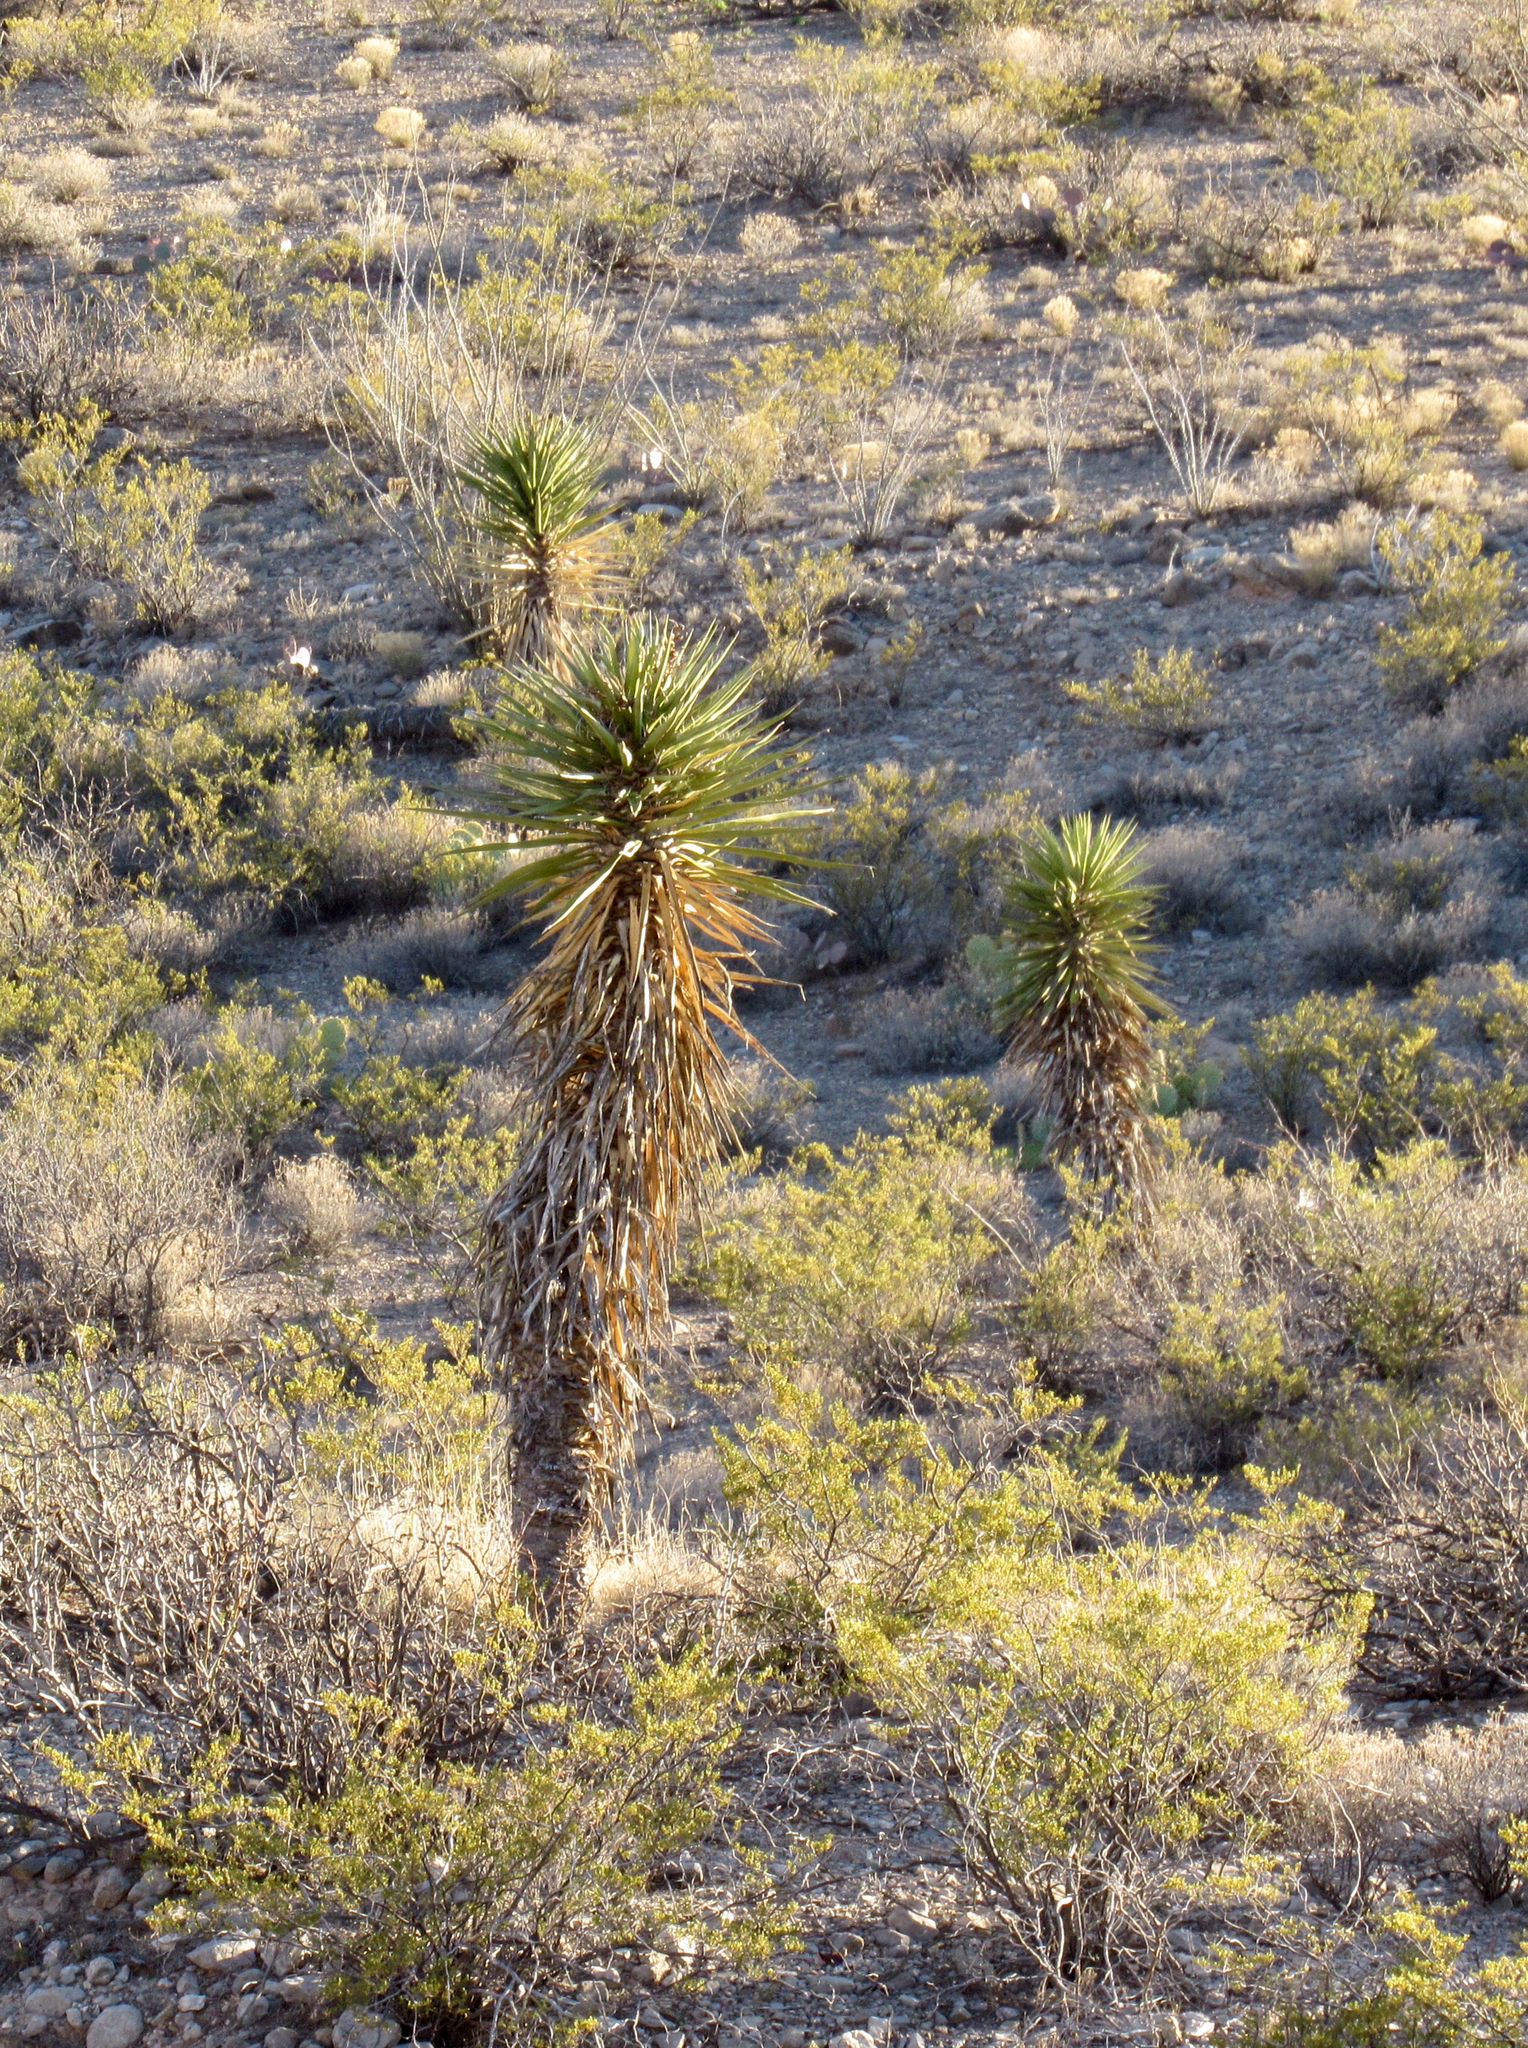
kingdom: Plantae
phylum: Tracheophyta
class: Liliopsida
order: Asparagales
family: Asparagaceae
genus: Yucca
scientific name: Yucca treculiana
